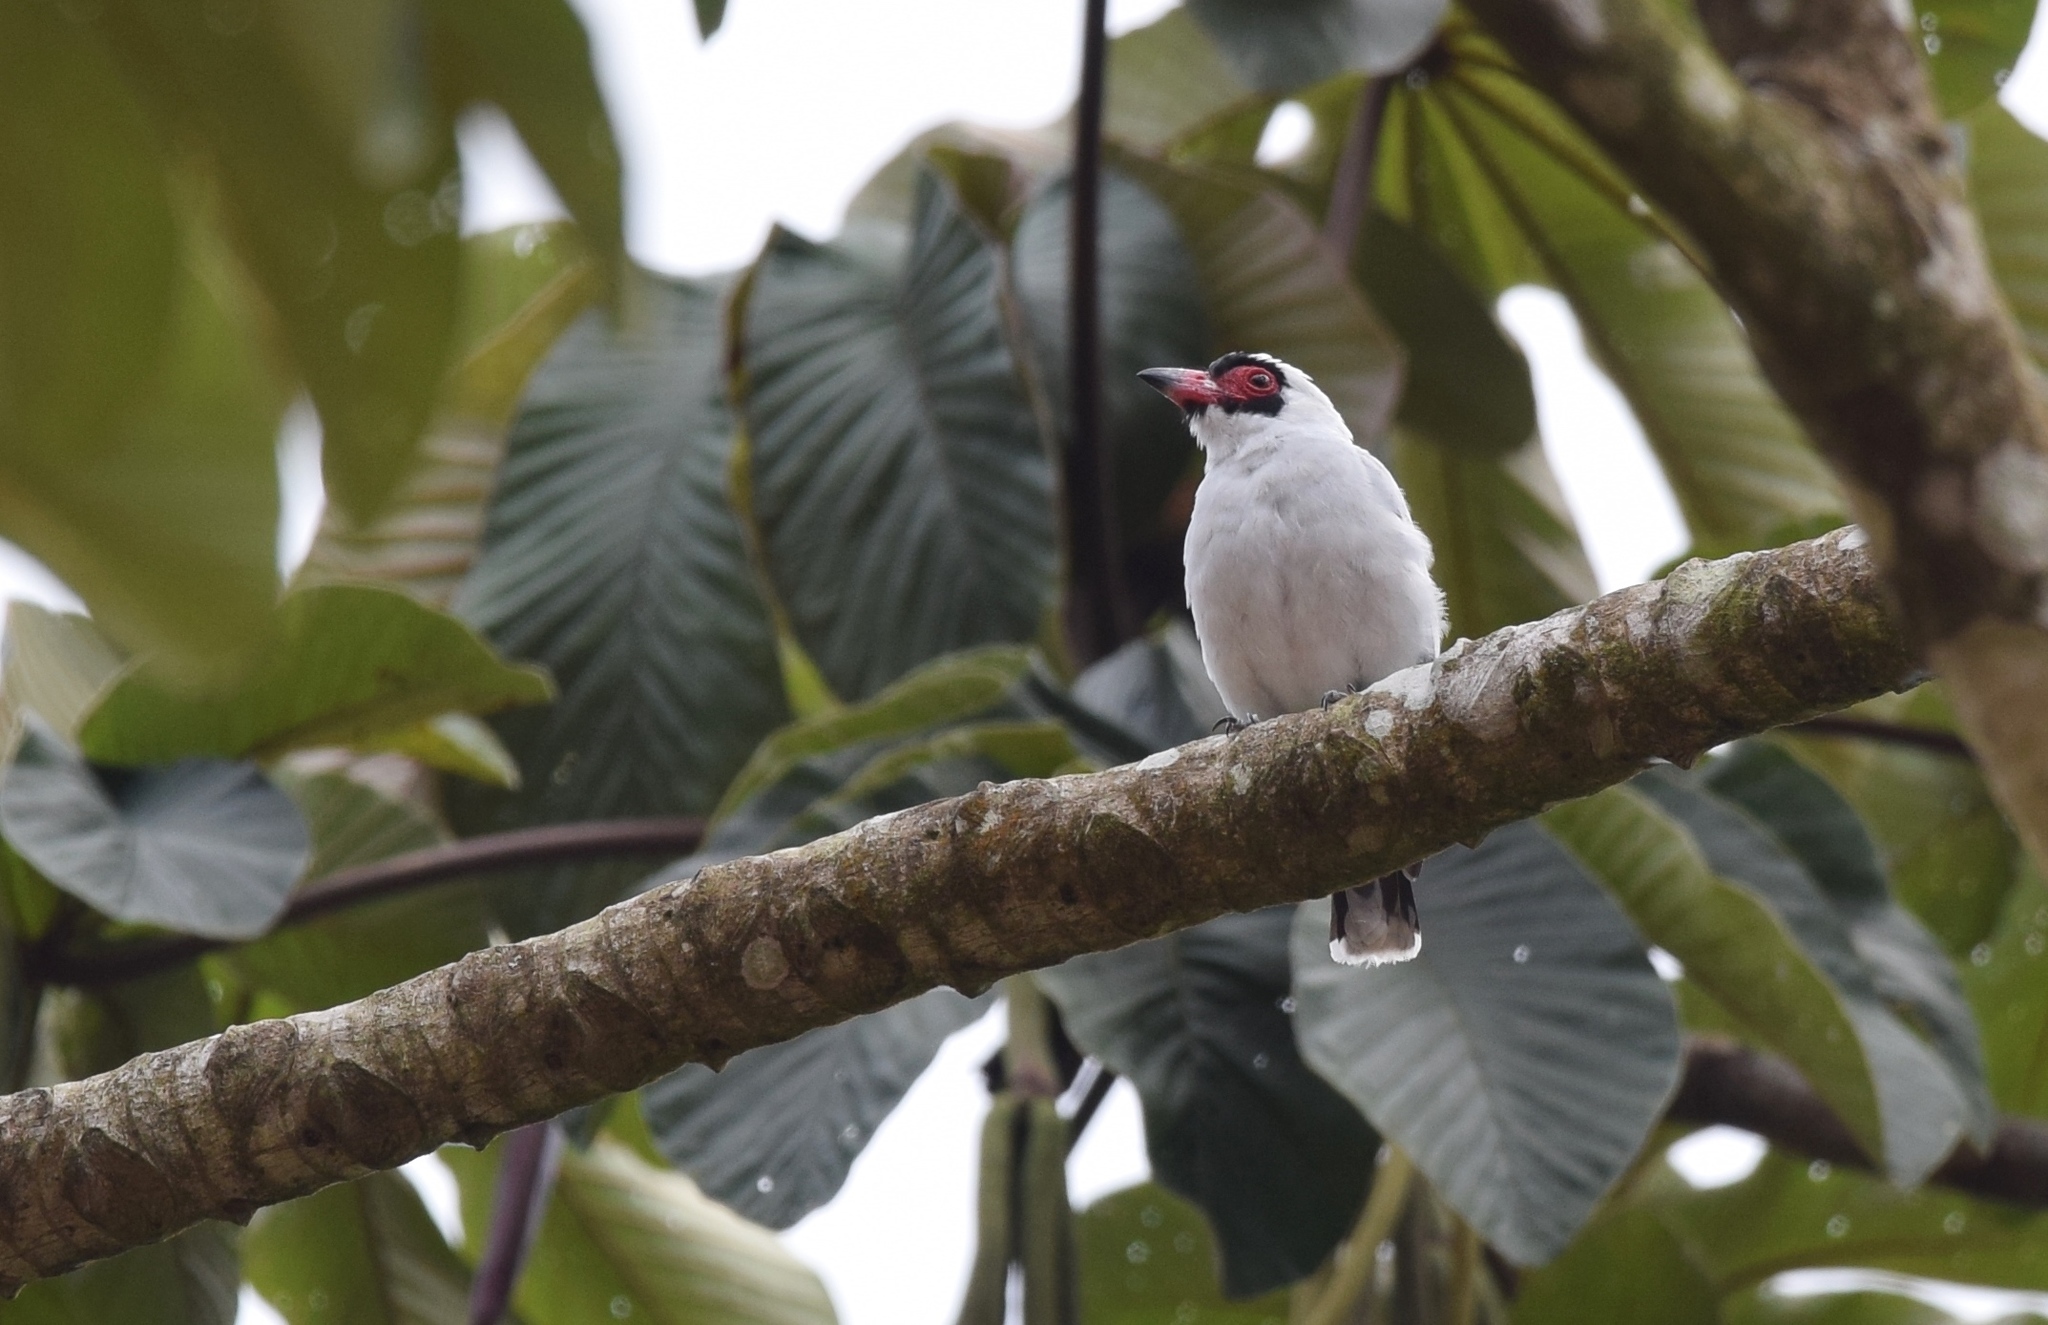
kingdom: Animalia
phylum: Chordata
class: Aves
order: Passeriformes
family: Cotingidae
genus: Tityra
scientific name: Tityra semifasciata
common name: Masked tityra
